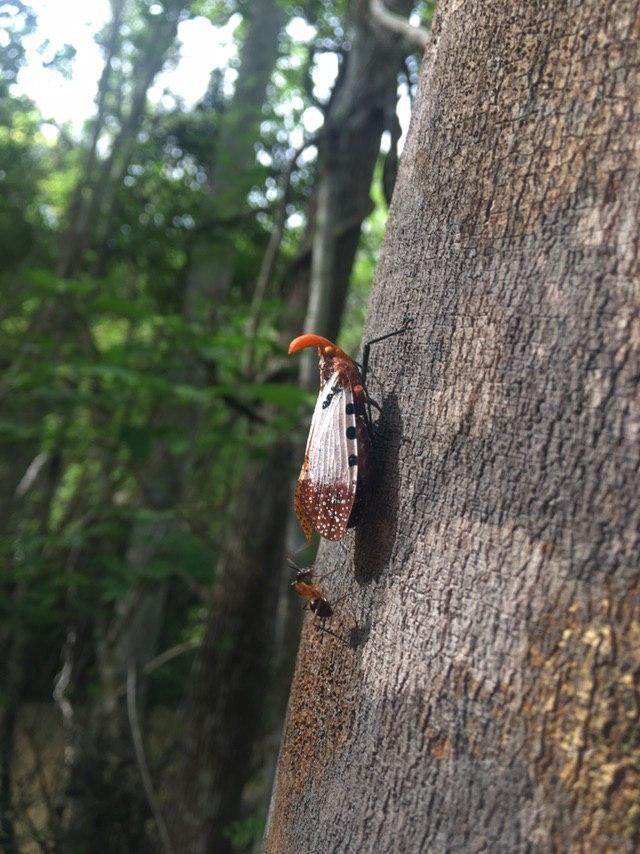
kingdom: Animalia
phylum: Arthropoda
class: Insecta
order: Hemiptera
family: Fulgoridae
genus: Belbina
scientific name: Belbina lambertoni
